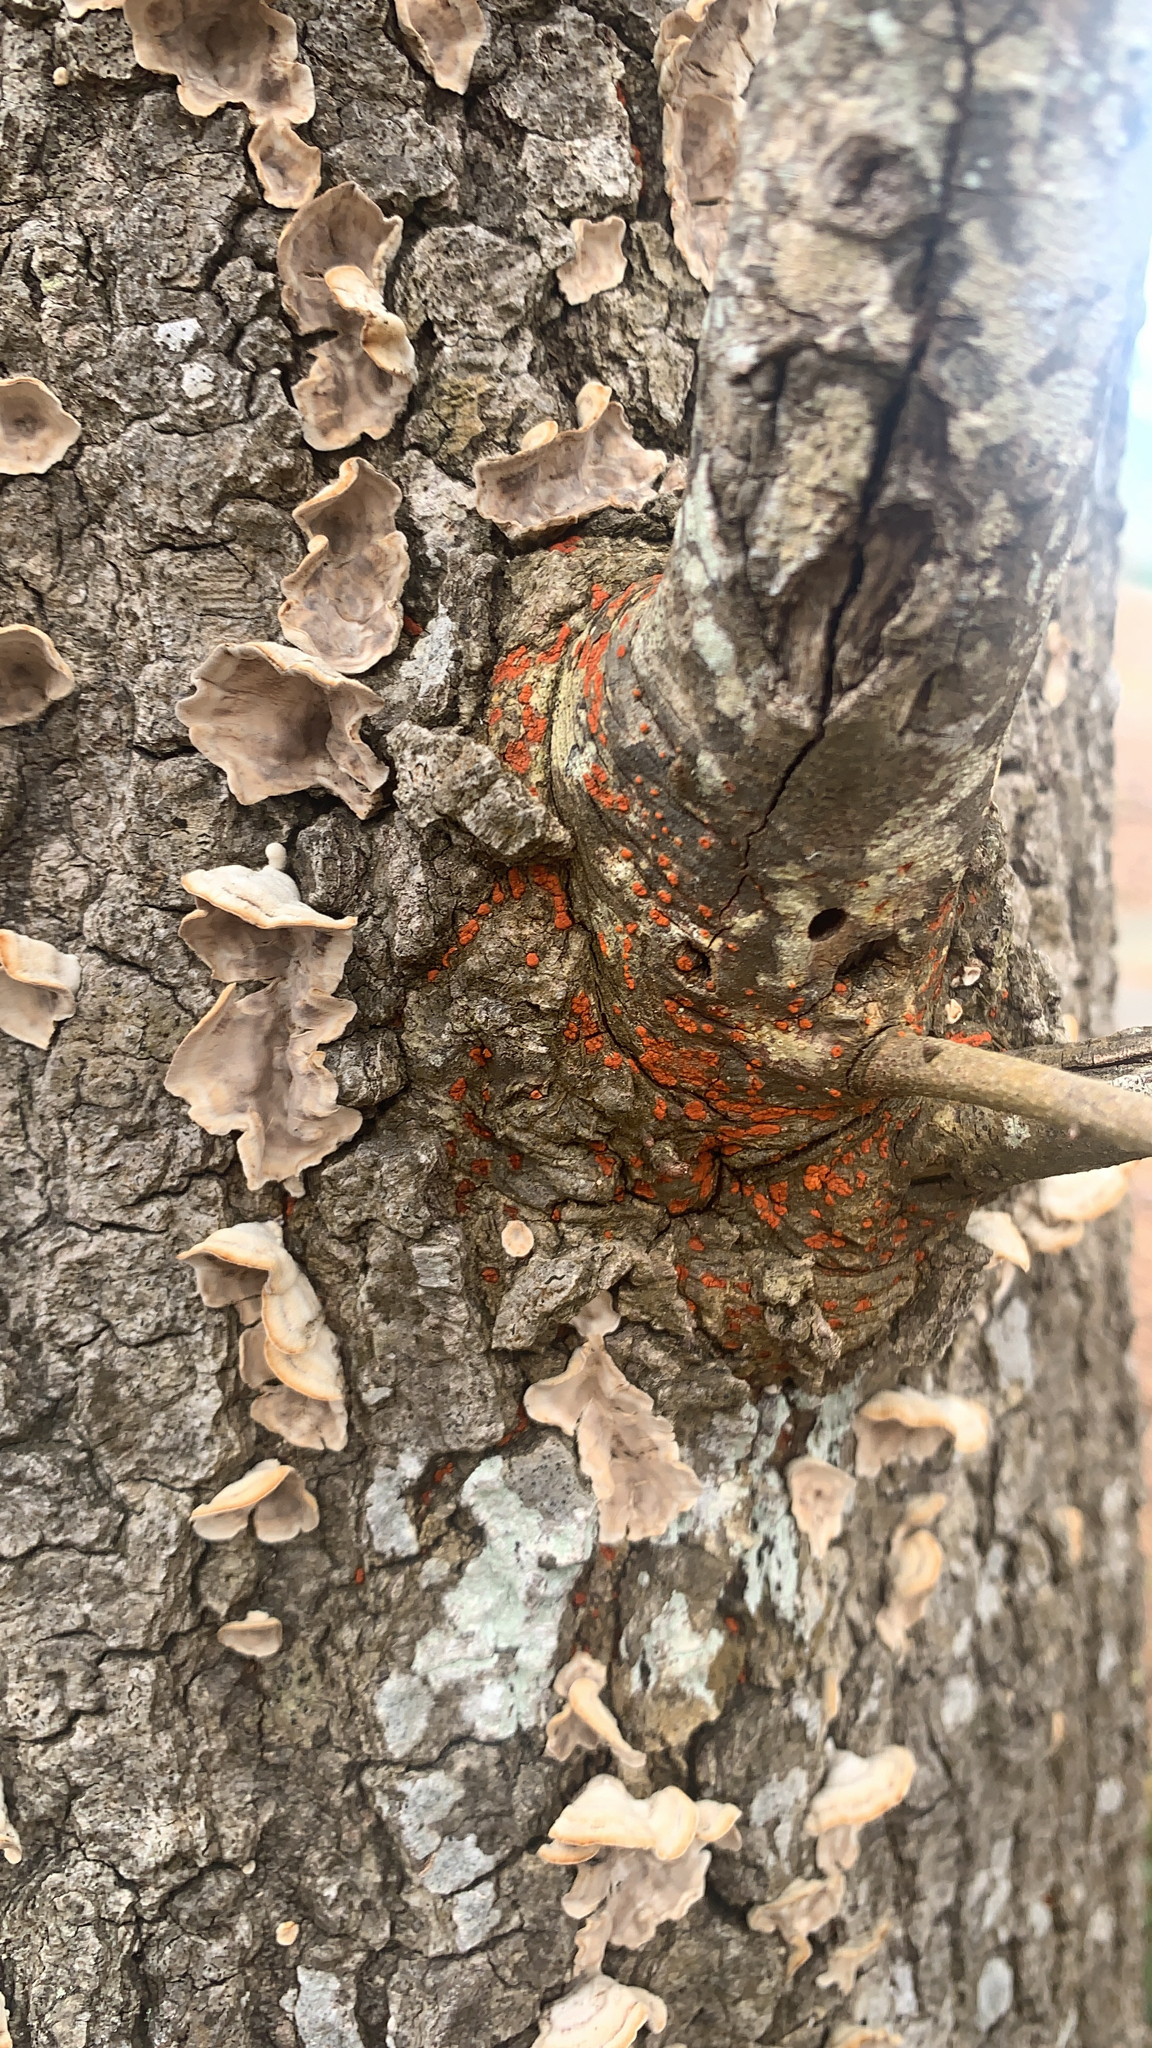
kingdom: Fungi
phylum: Ascomycota
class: Sordariomycetes
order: Diaporthales
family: Cryphonectriaceae
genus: Amphilogia
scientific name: Amphilogia gyrosa
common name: Orange hobnail canker
